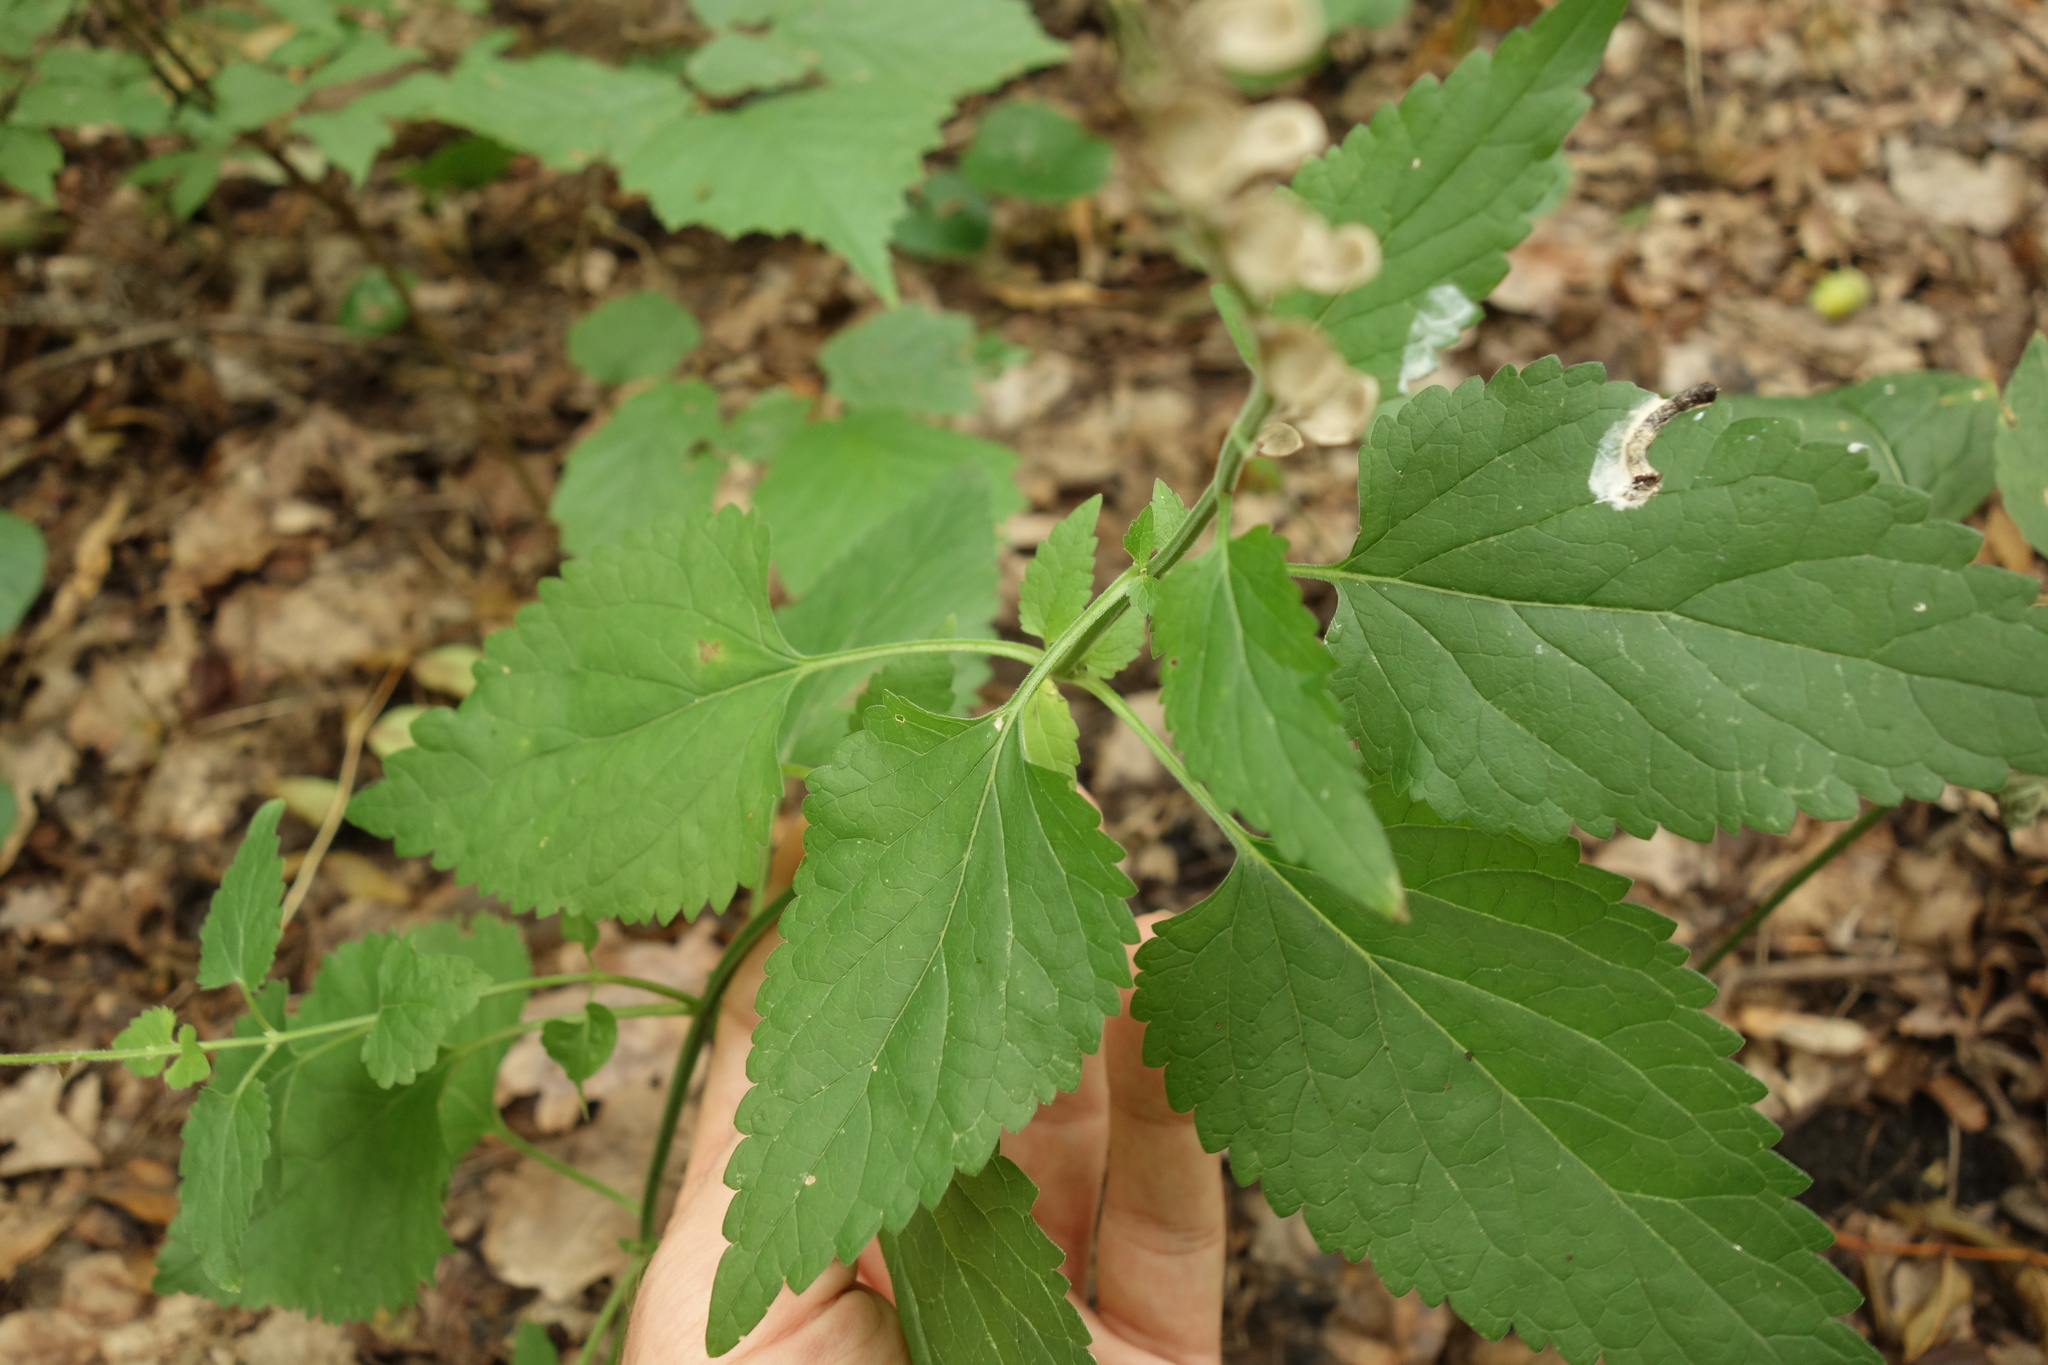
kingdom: Plantae
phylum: Tracheophyta
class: Magnoliopsida
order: Lamiales
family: Lamiaceae
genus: Scutellaria
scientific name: Scutellaria altissima
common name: Somerset skullcap
